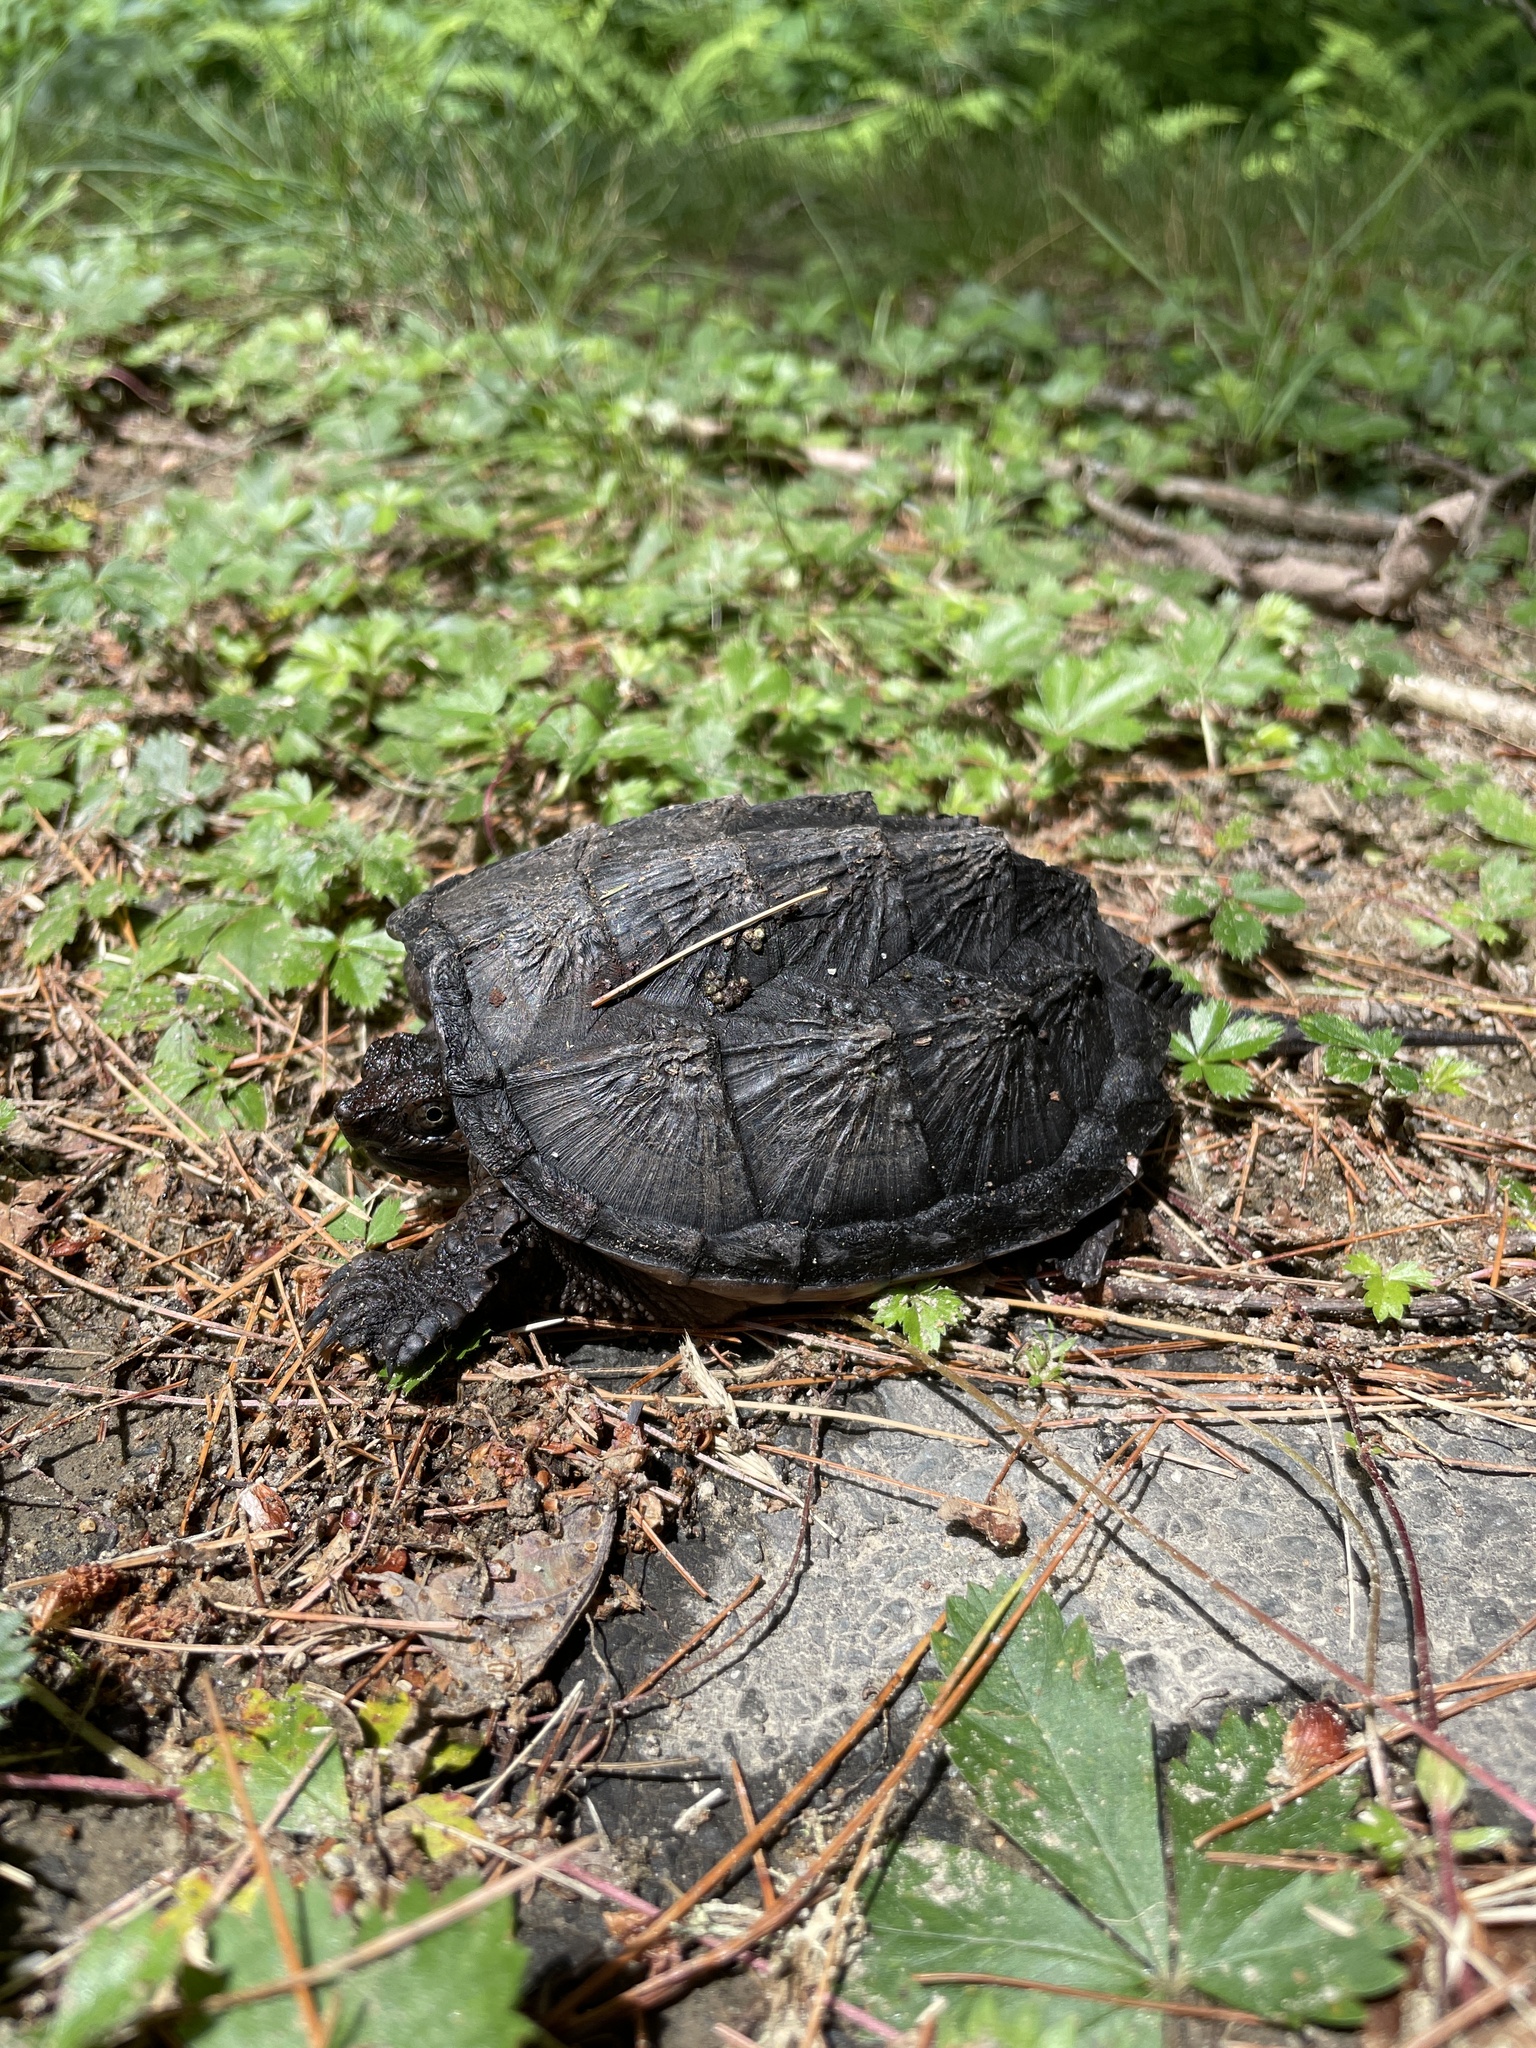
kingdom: Animalia
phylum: Chordata
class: Testudines
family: Chelydridae
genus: Chelydra
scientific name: Chelydra serpentina
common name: Common snapping turtle
